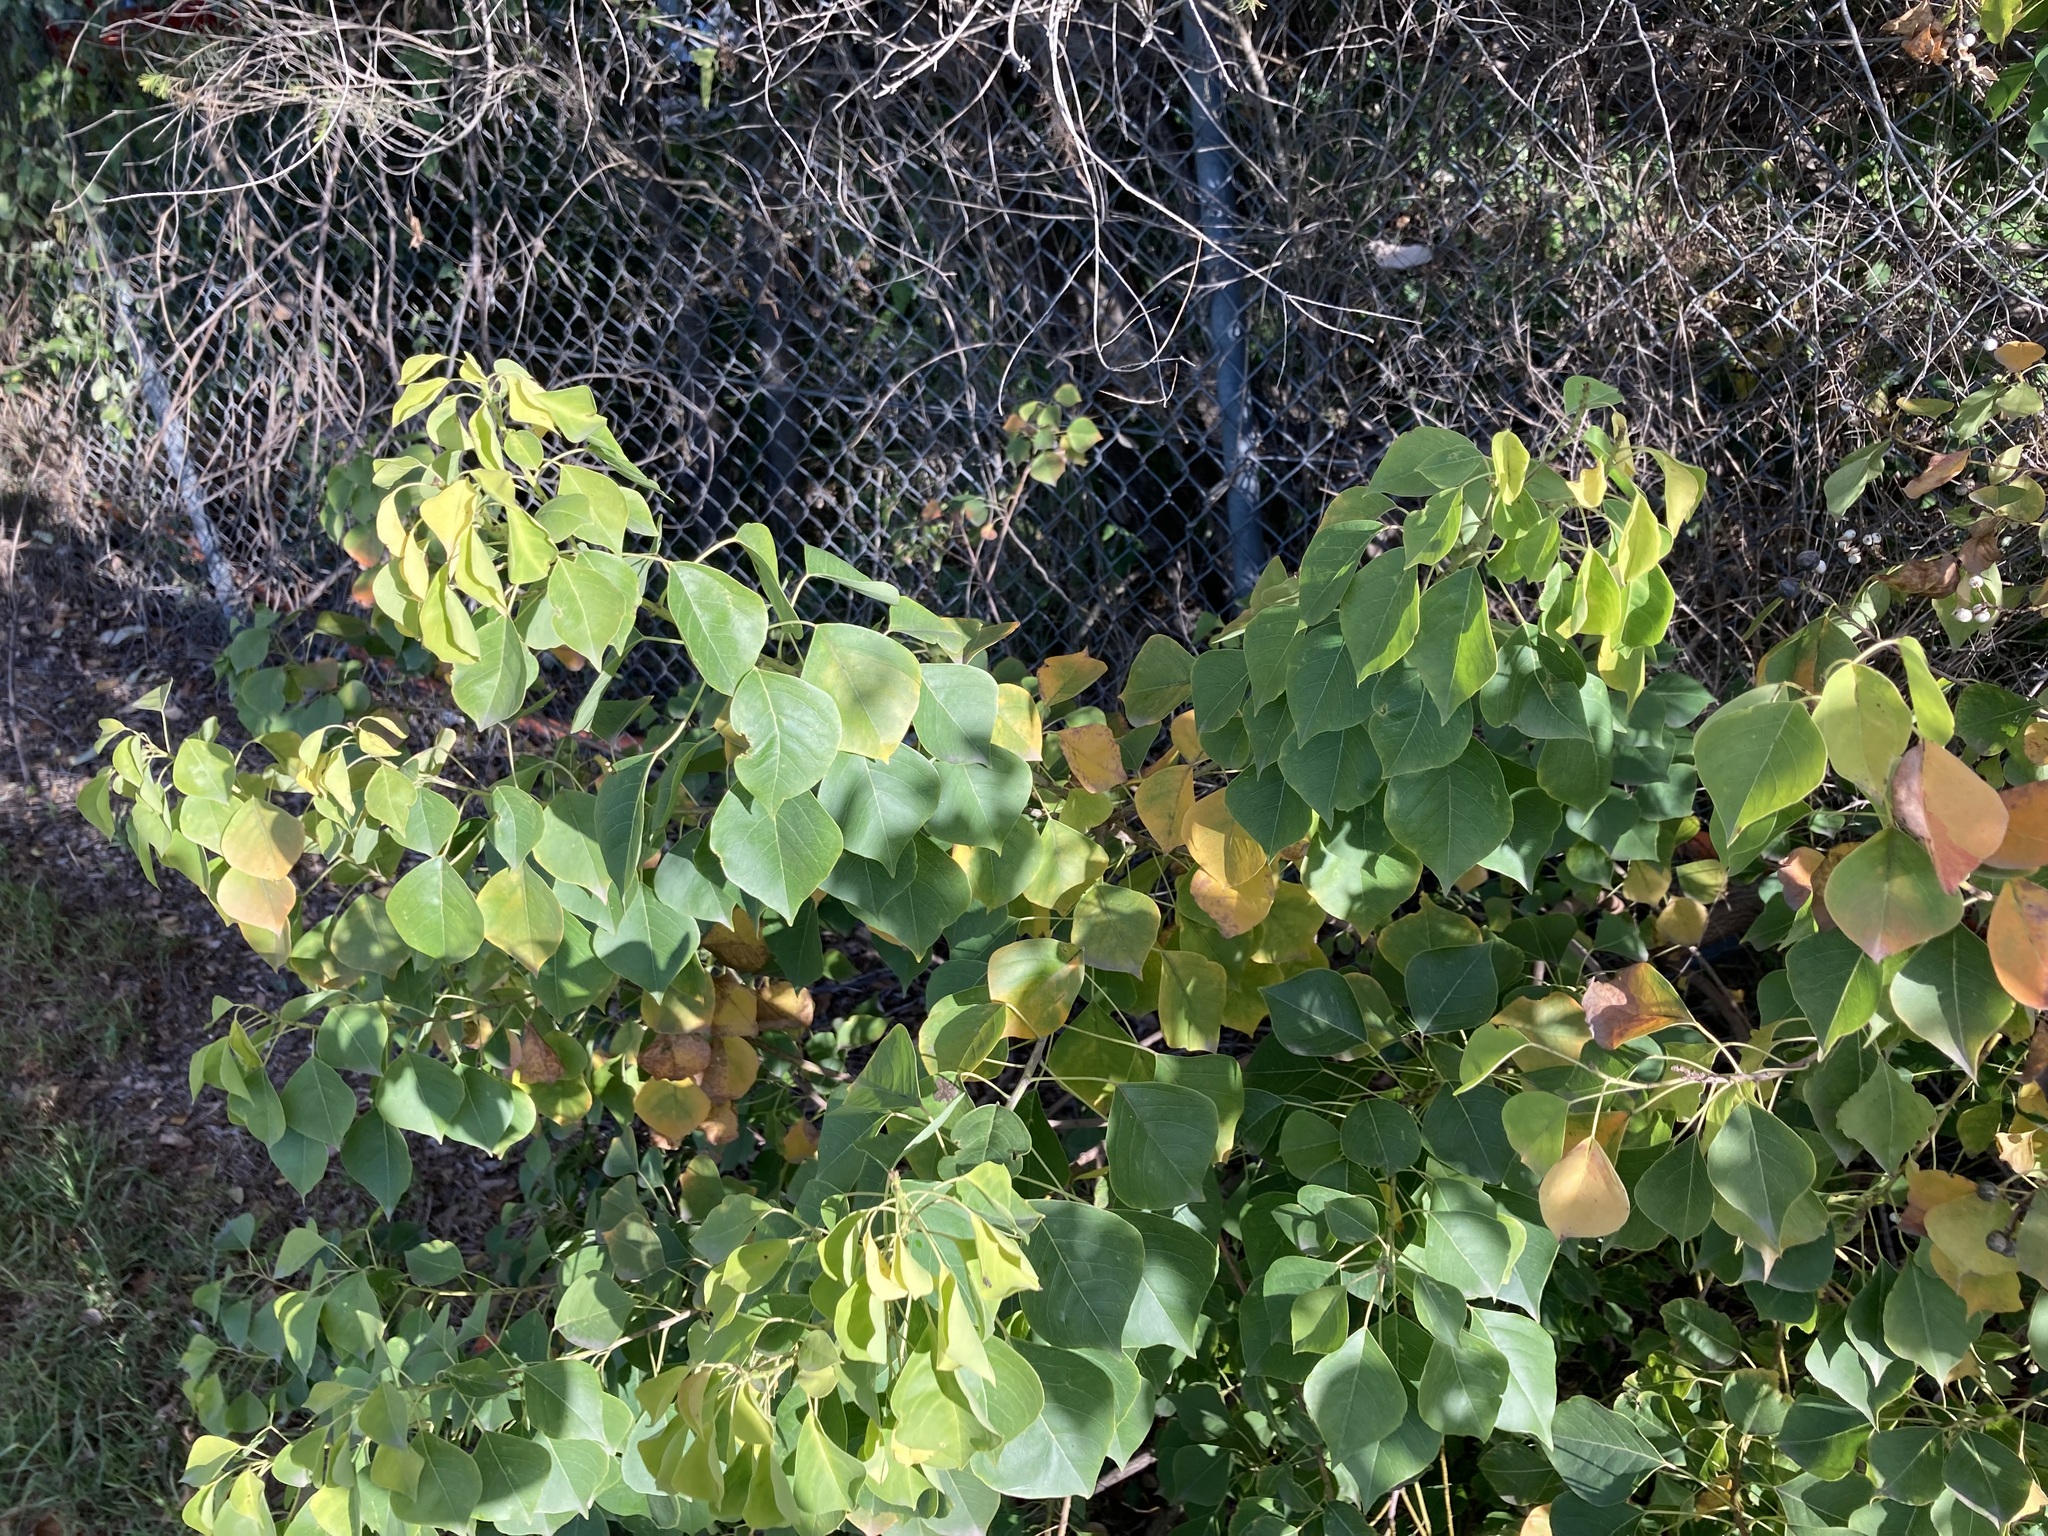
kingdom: Plantae
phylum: Tracheophyta
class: Magnoliopsida
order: Malpighiales
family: Euphorbiaceae
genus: Triadica
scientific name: Triadica sebifera
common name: Chinese tallow
